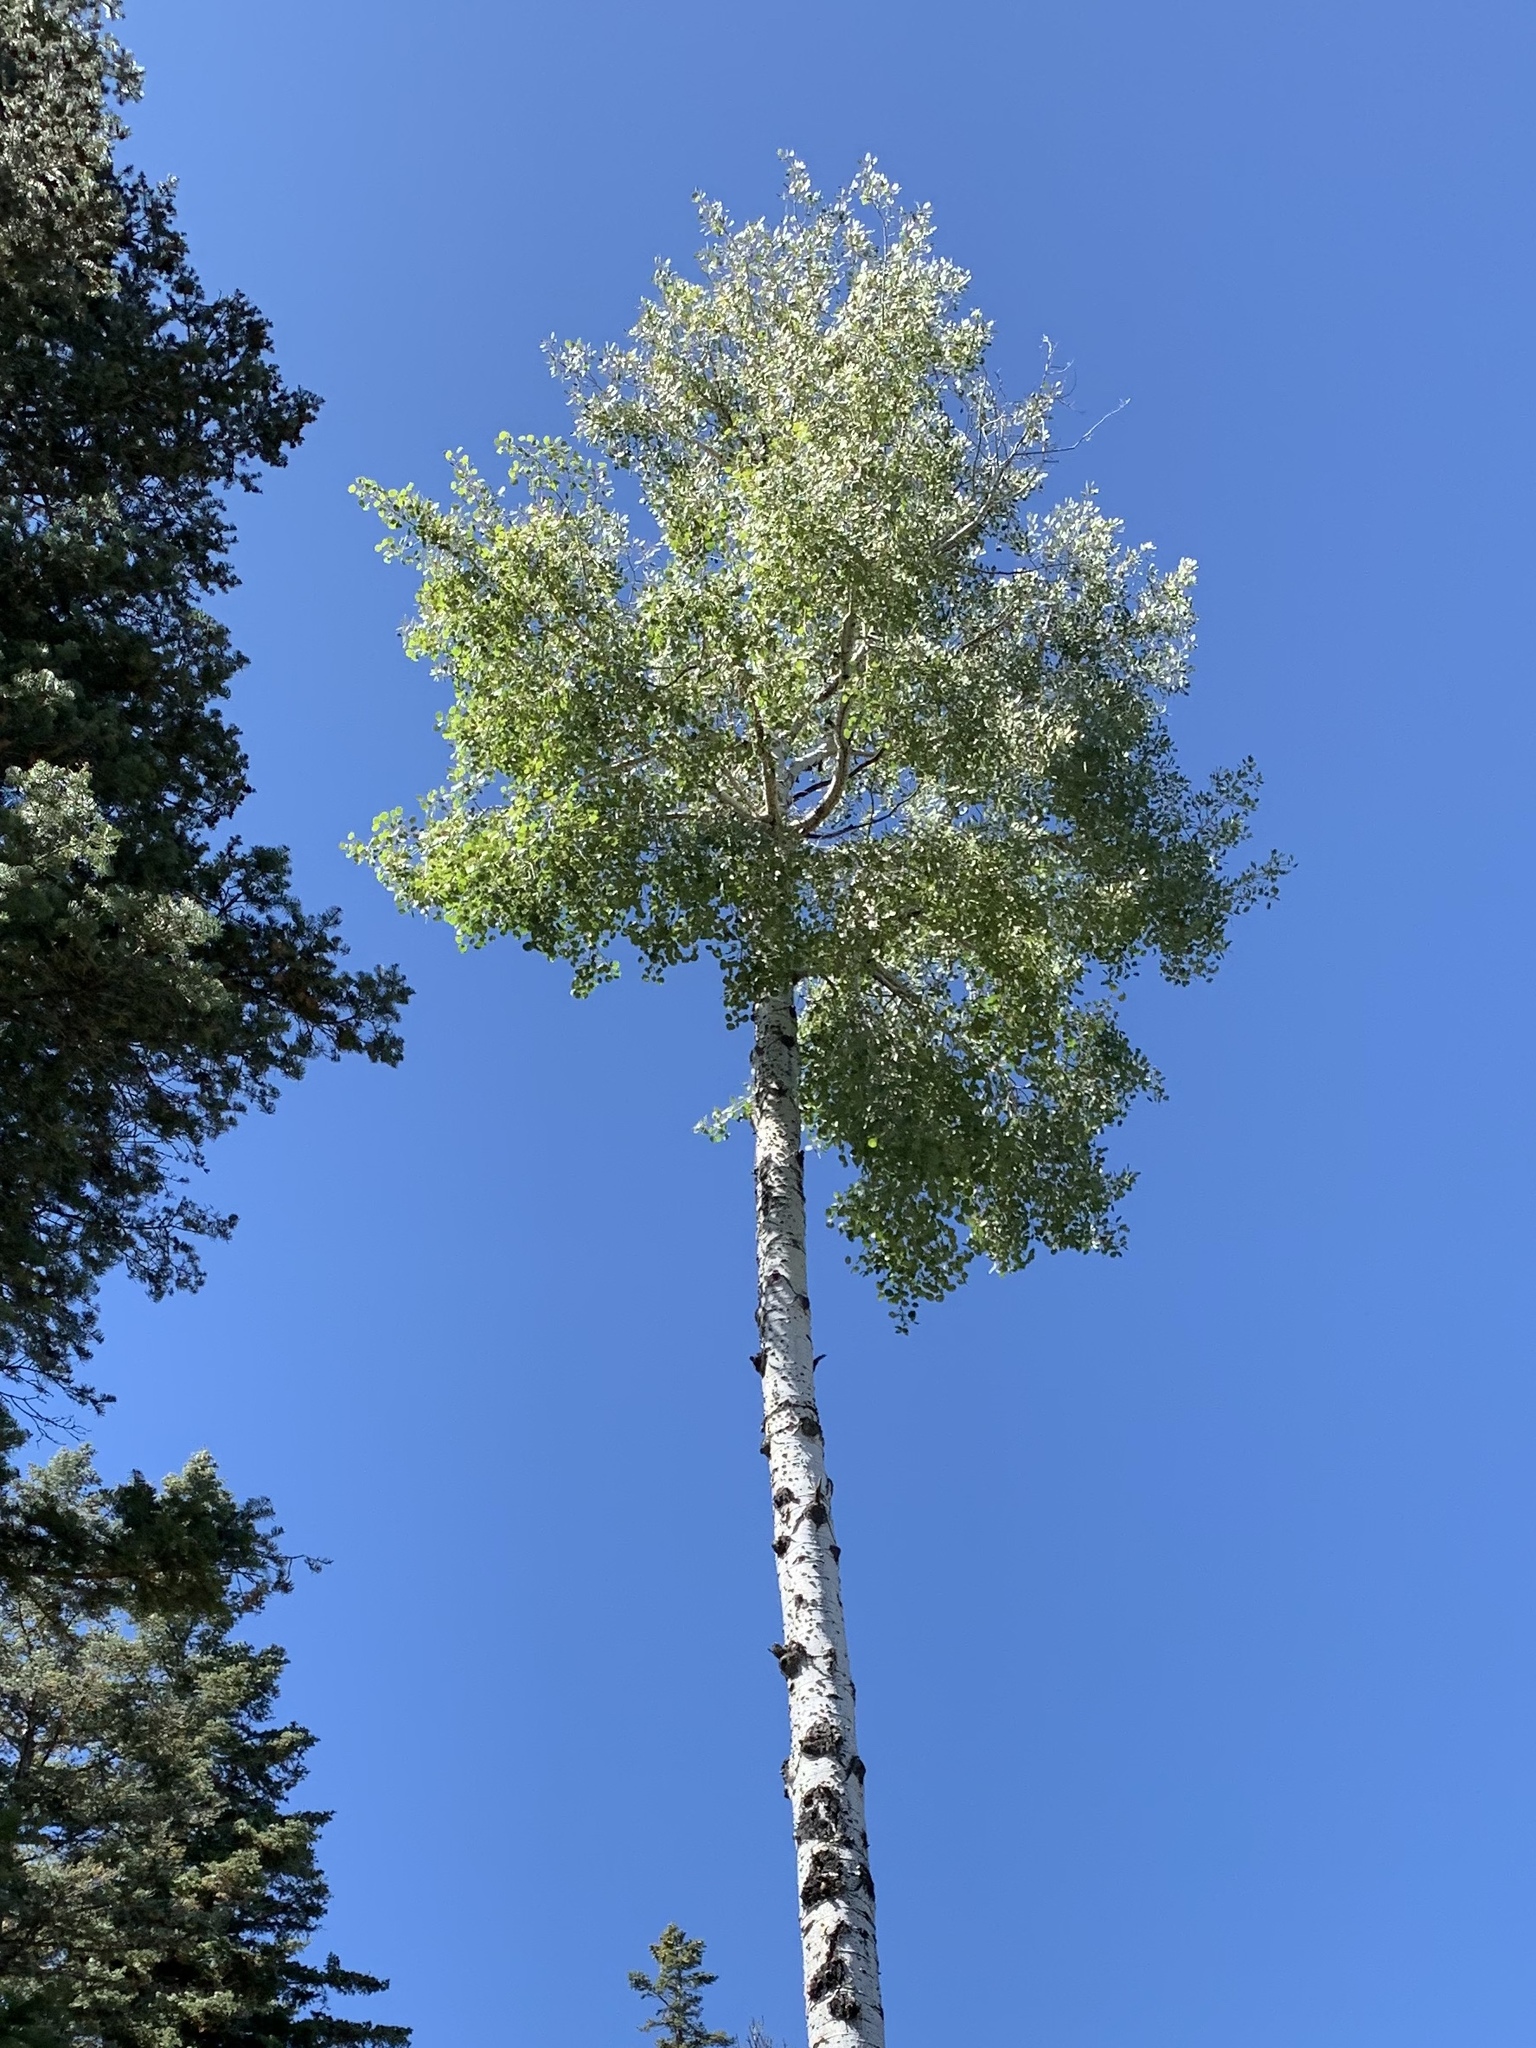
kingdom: Plantae
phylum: Tracheophyta
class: Magnoliopsida
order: Malpighiales
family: Salicaceae
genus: Populus
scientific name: Populus tremuloides
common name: Quaking aspen
